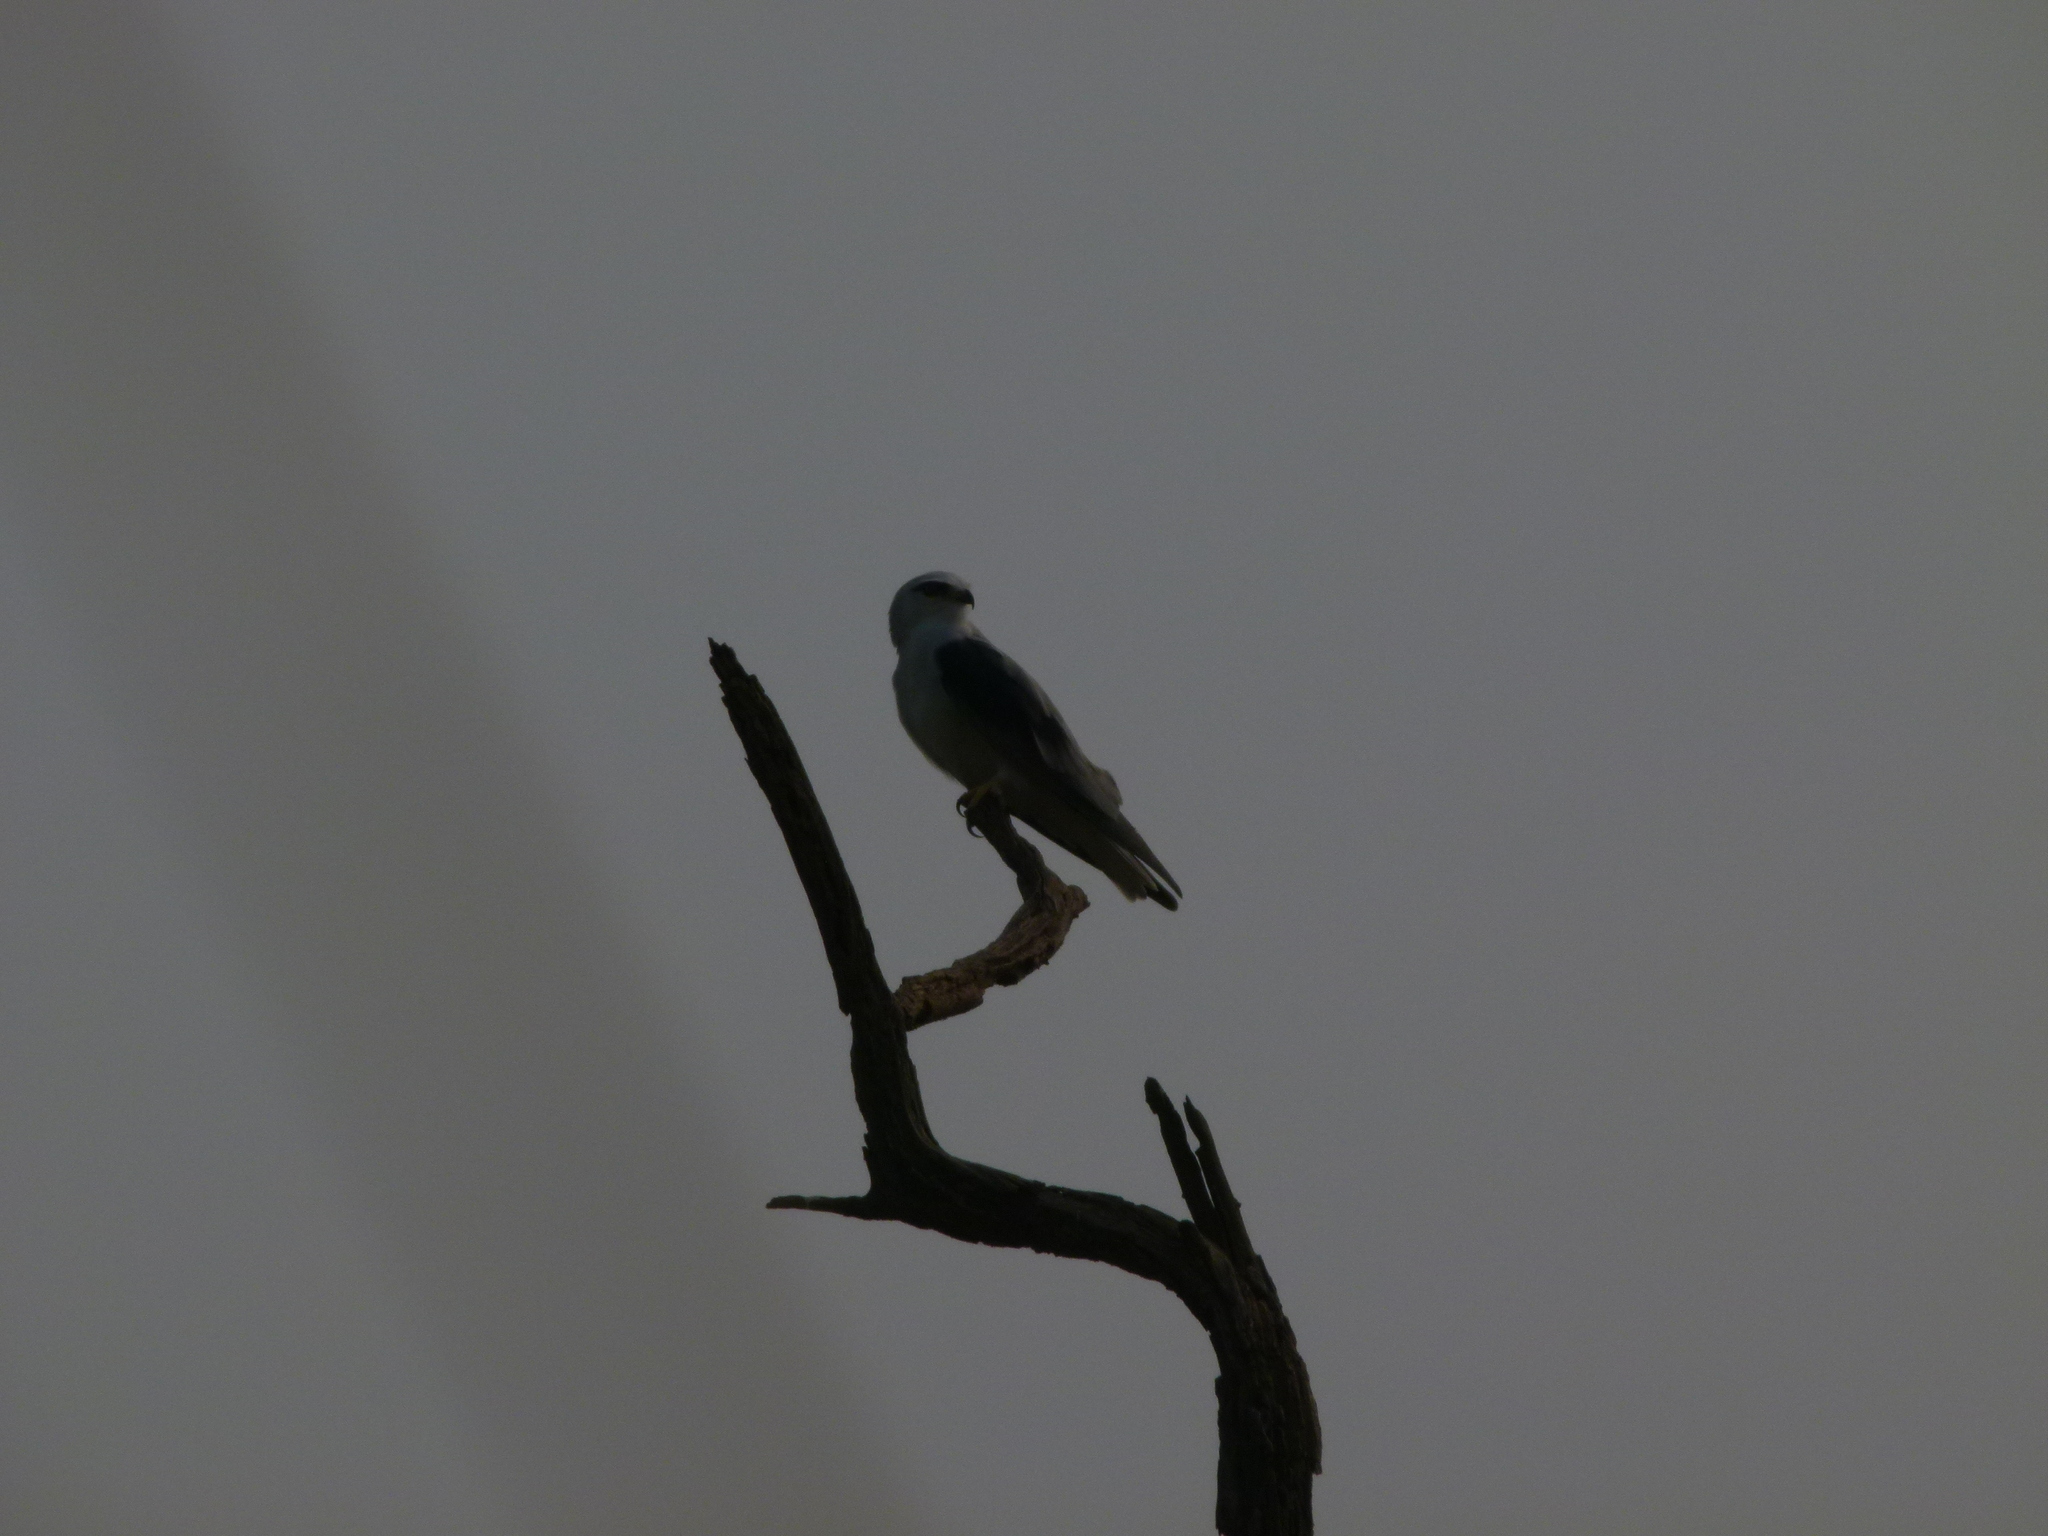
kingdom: Animalia
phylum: Chordata
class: Aves
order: Accipitriformes
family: Accipitridae
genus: Elanus
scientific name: Elanus caeruleus
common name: Black-winged kite
